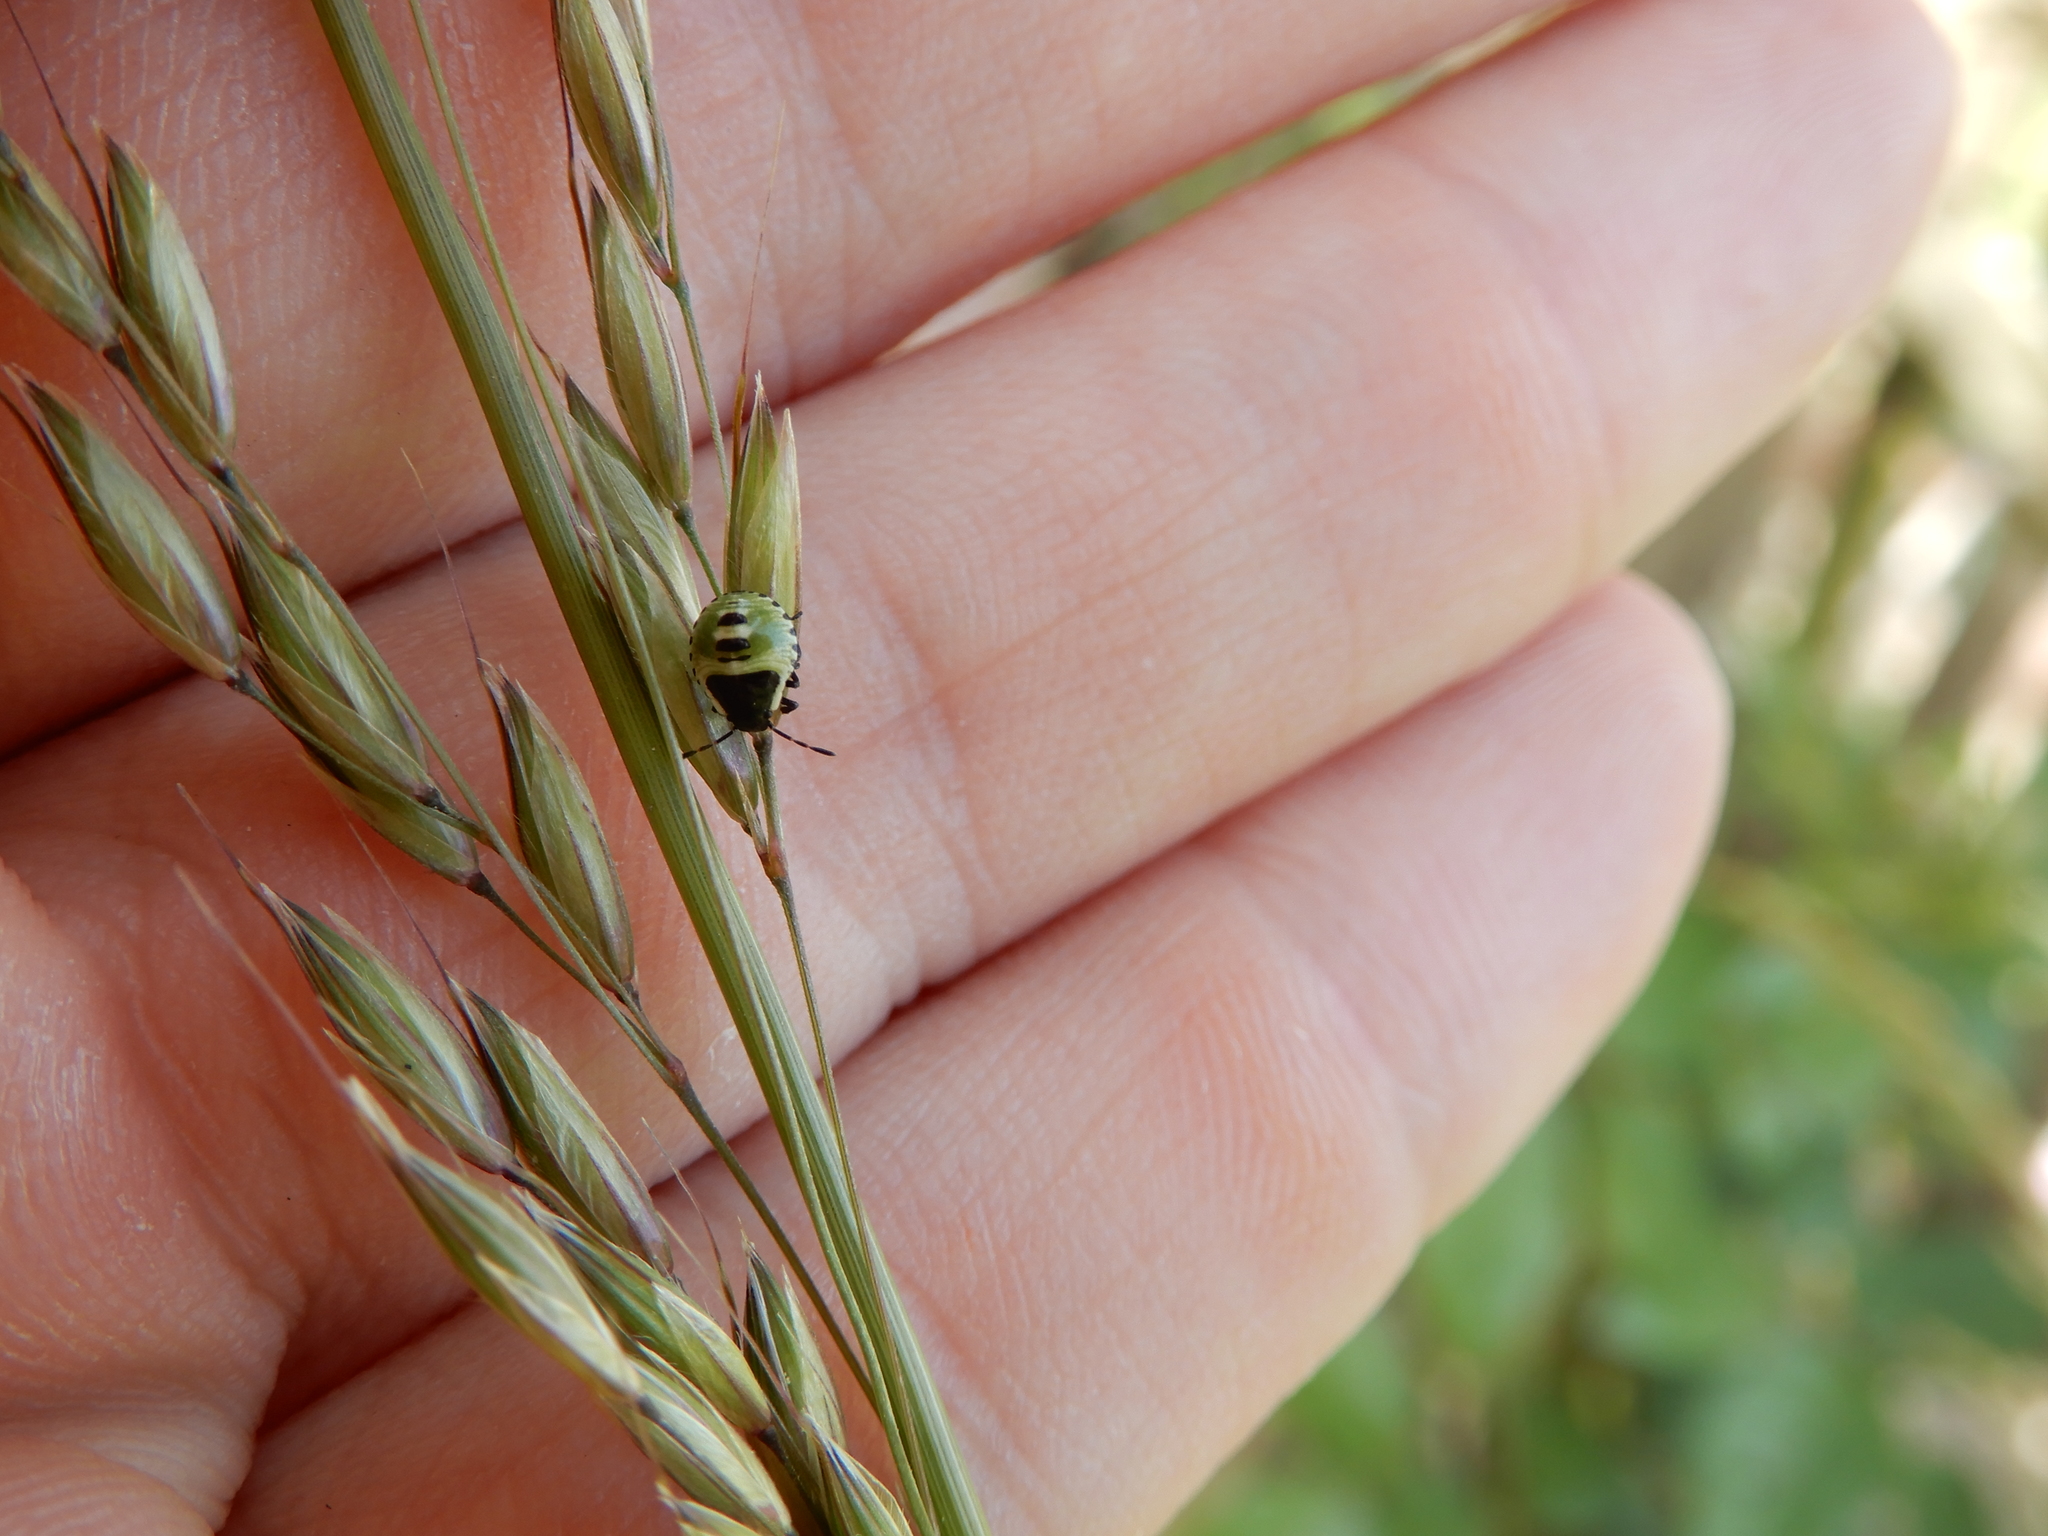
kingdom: Animalia
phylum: Arthropoda
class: Insecta
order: Hemiptera
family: Pentatomidae
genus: Palomena
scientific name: Palomena prasina
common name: Green shieldbug
